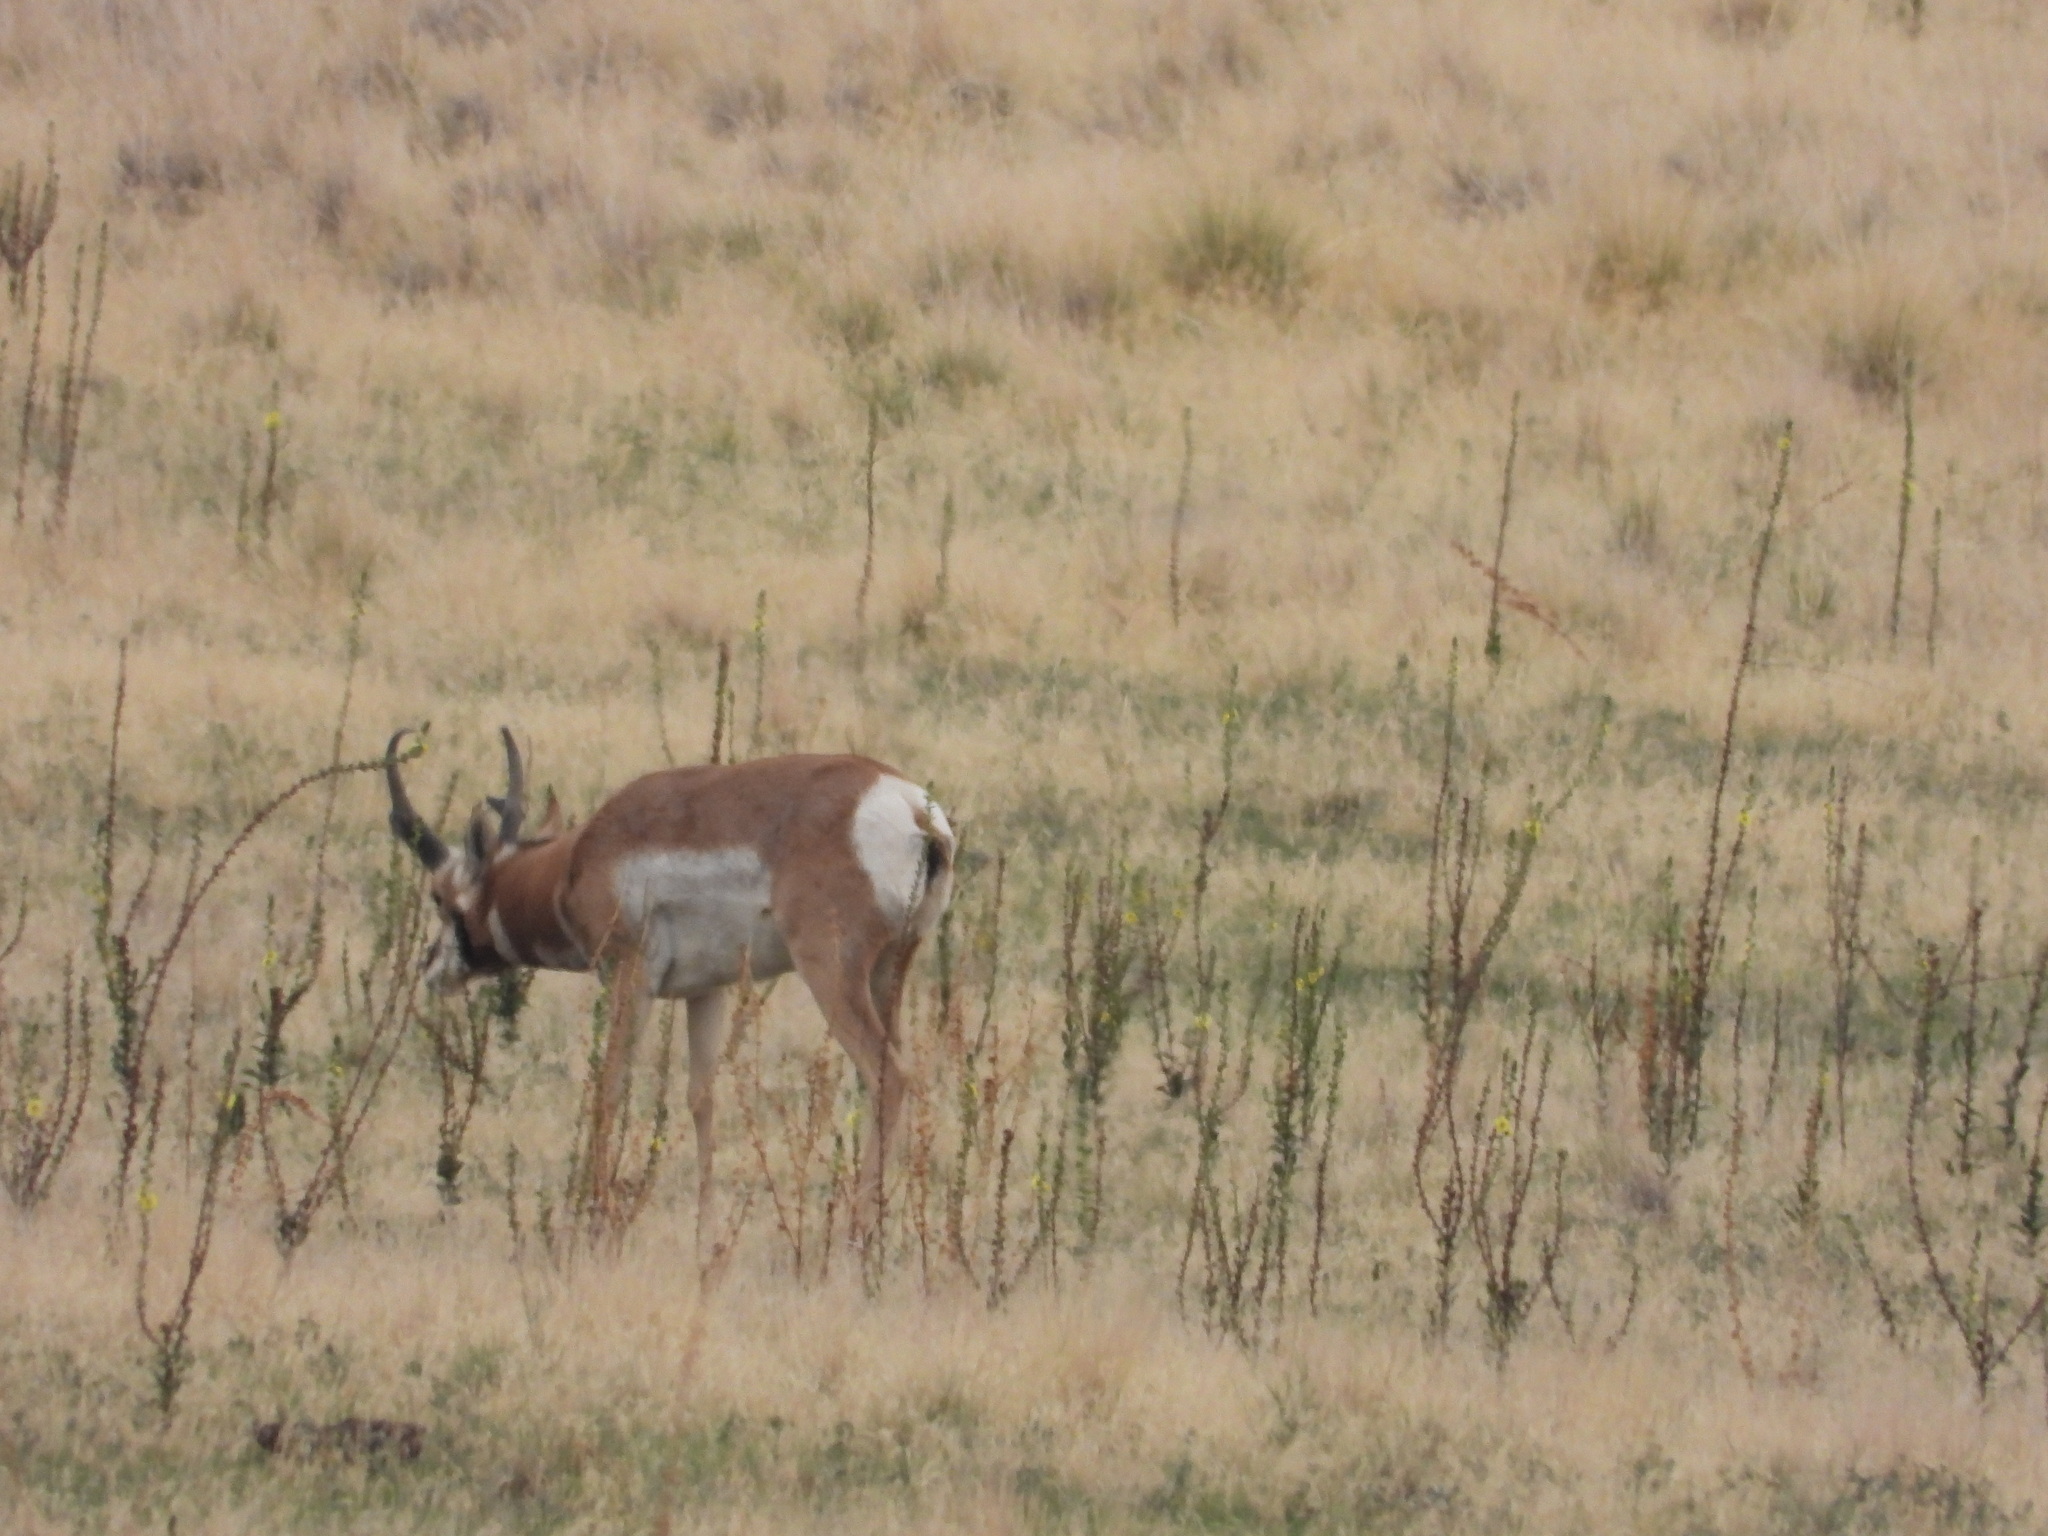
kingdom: Animalia
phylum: Chordata
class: Mammalia
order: Artiodactyla
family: Antilocapridae
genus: Antilocapra
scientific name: Antilocapra americana
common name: Pronghorn
